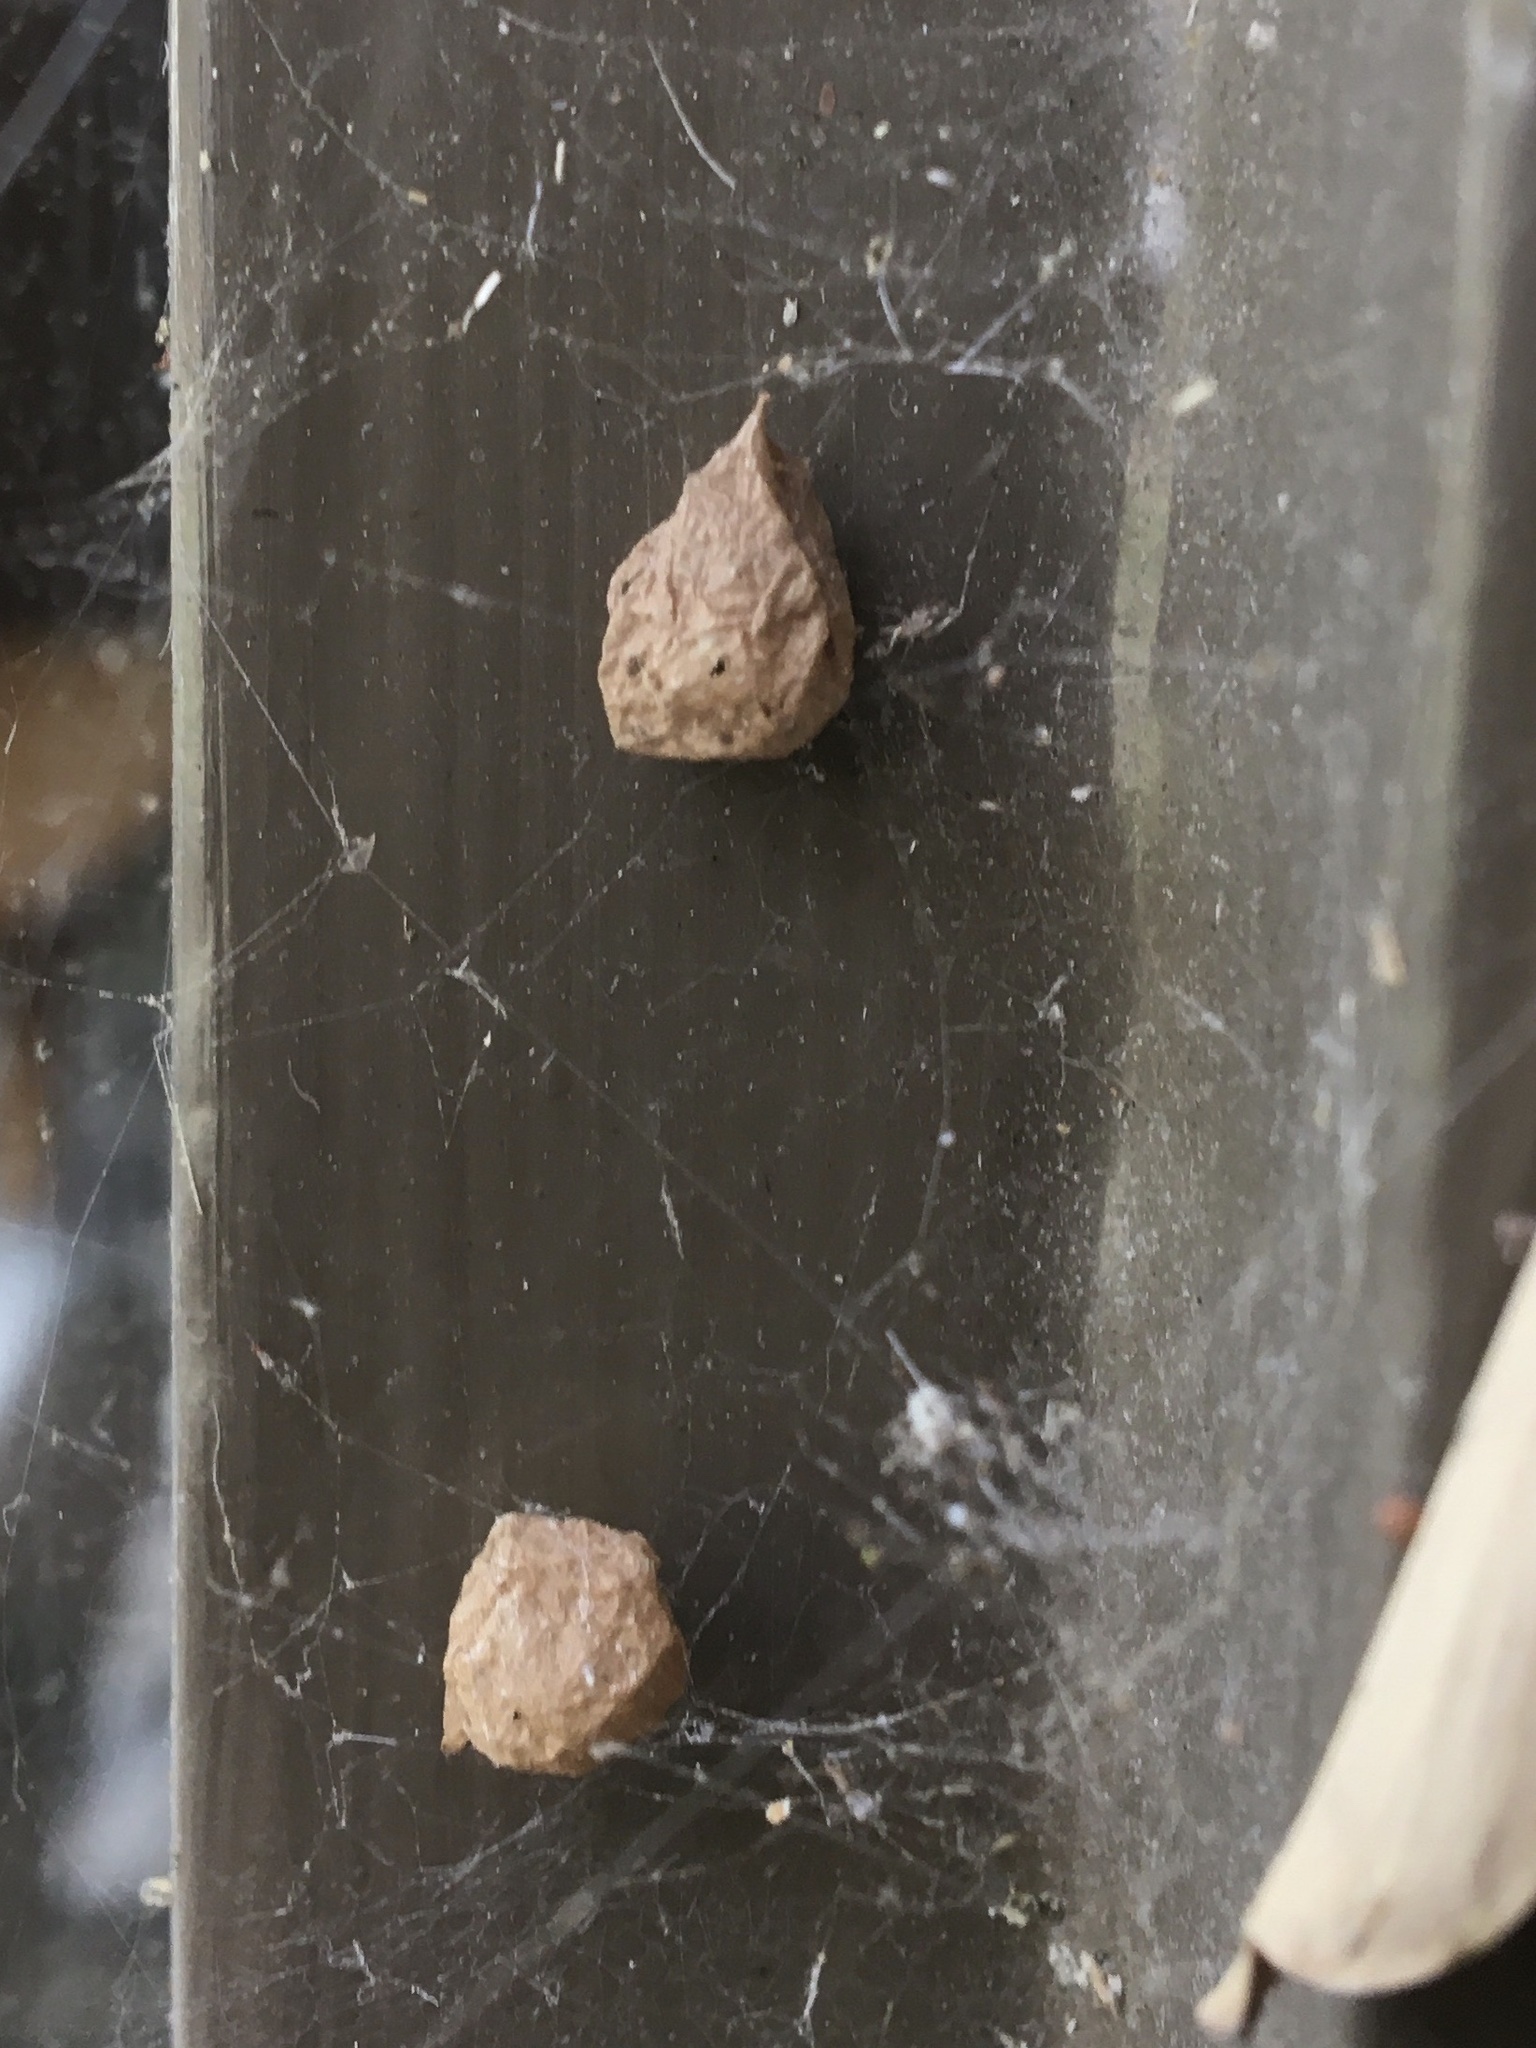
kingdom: Animalia
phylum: Arthropoda
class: Arachnida
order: Araneae
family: Theridiidae
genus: Parasteatoda
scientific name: Parasteatoda tepidariorum
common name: Common house spider
